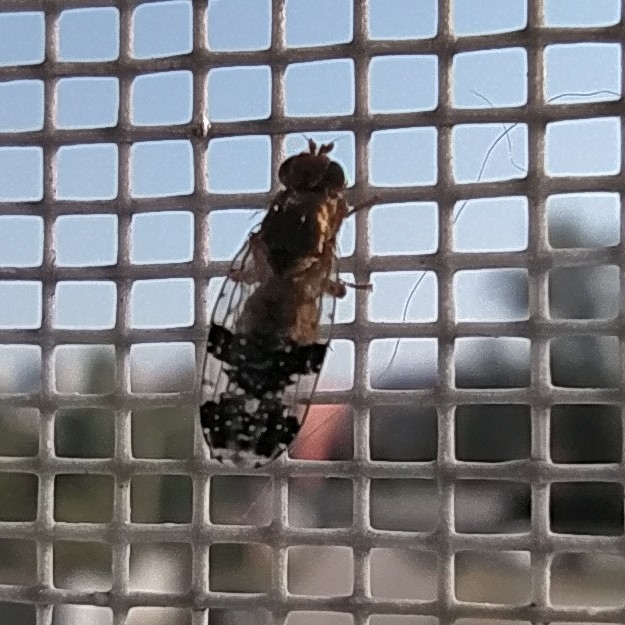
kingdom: Animalia
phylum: Arthropoda
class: Insecta
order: Diptera
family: Tephritidae
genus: Tephritis
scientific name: Tephritis bardanae
